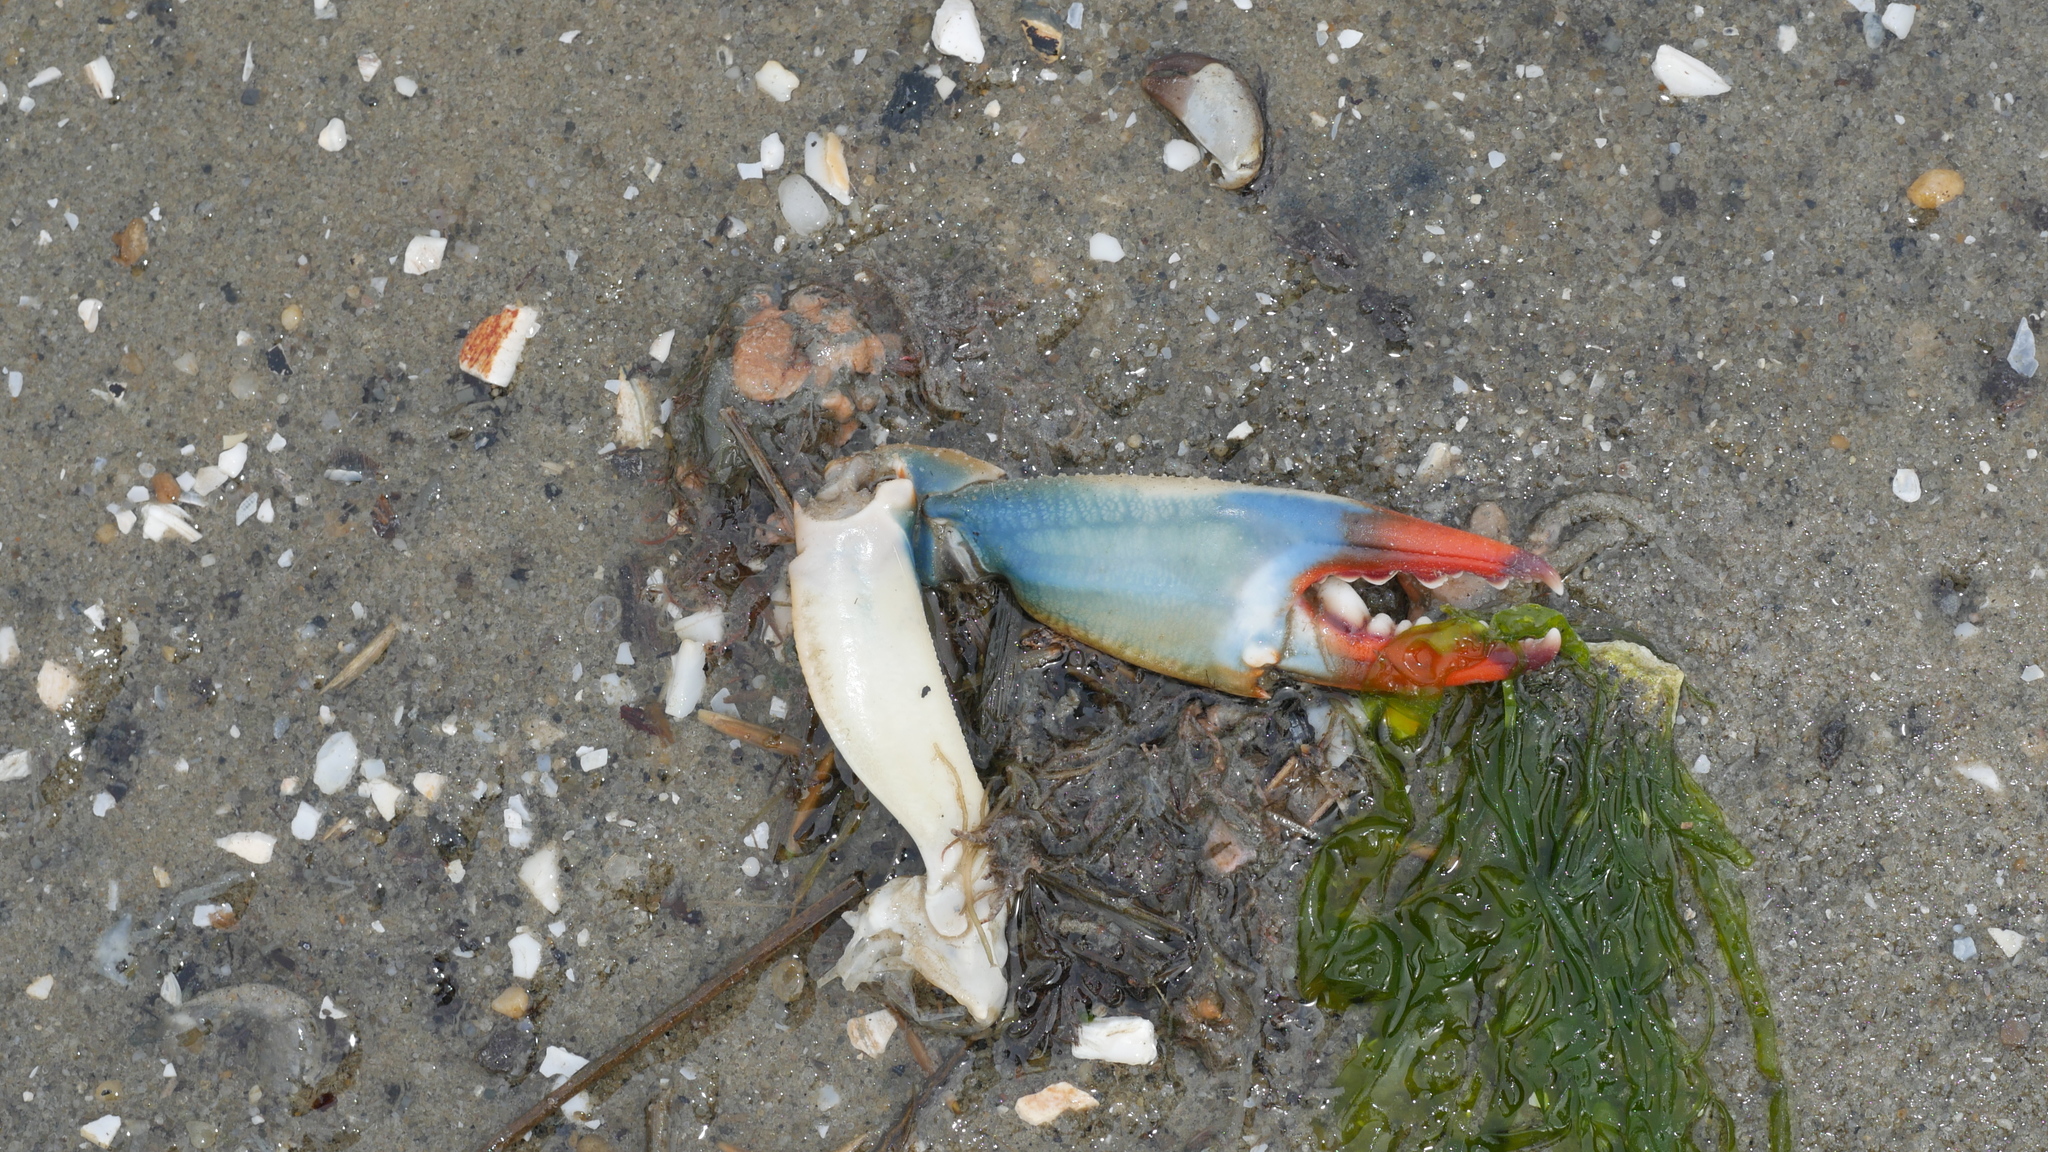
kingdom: Animalia
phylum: Arthropoda
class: Malacostraca
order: Decapoda
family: Portunidae
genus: Callinectes
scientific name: Callinectes sapidus
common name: Blue crab
